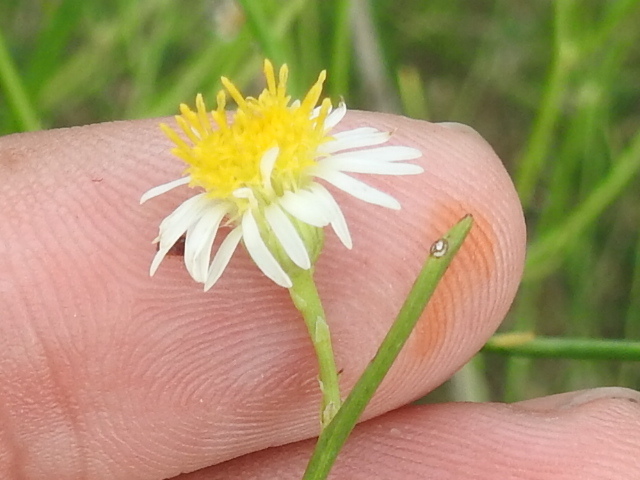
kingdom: Plantae
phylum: Tracheophyta
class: Magnoliopsida
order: Asterales
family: Asteraceae
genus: Chloracantha
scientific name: Chloracantha spinosa
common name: Mexican devilweed
